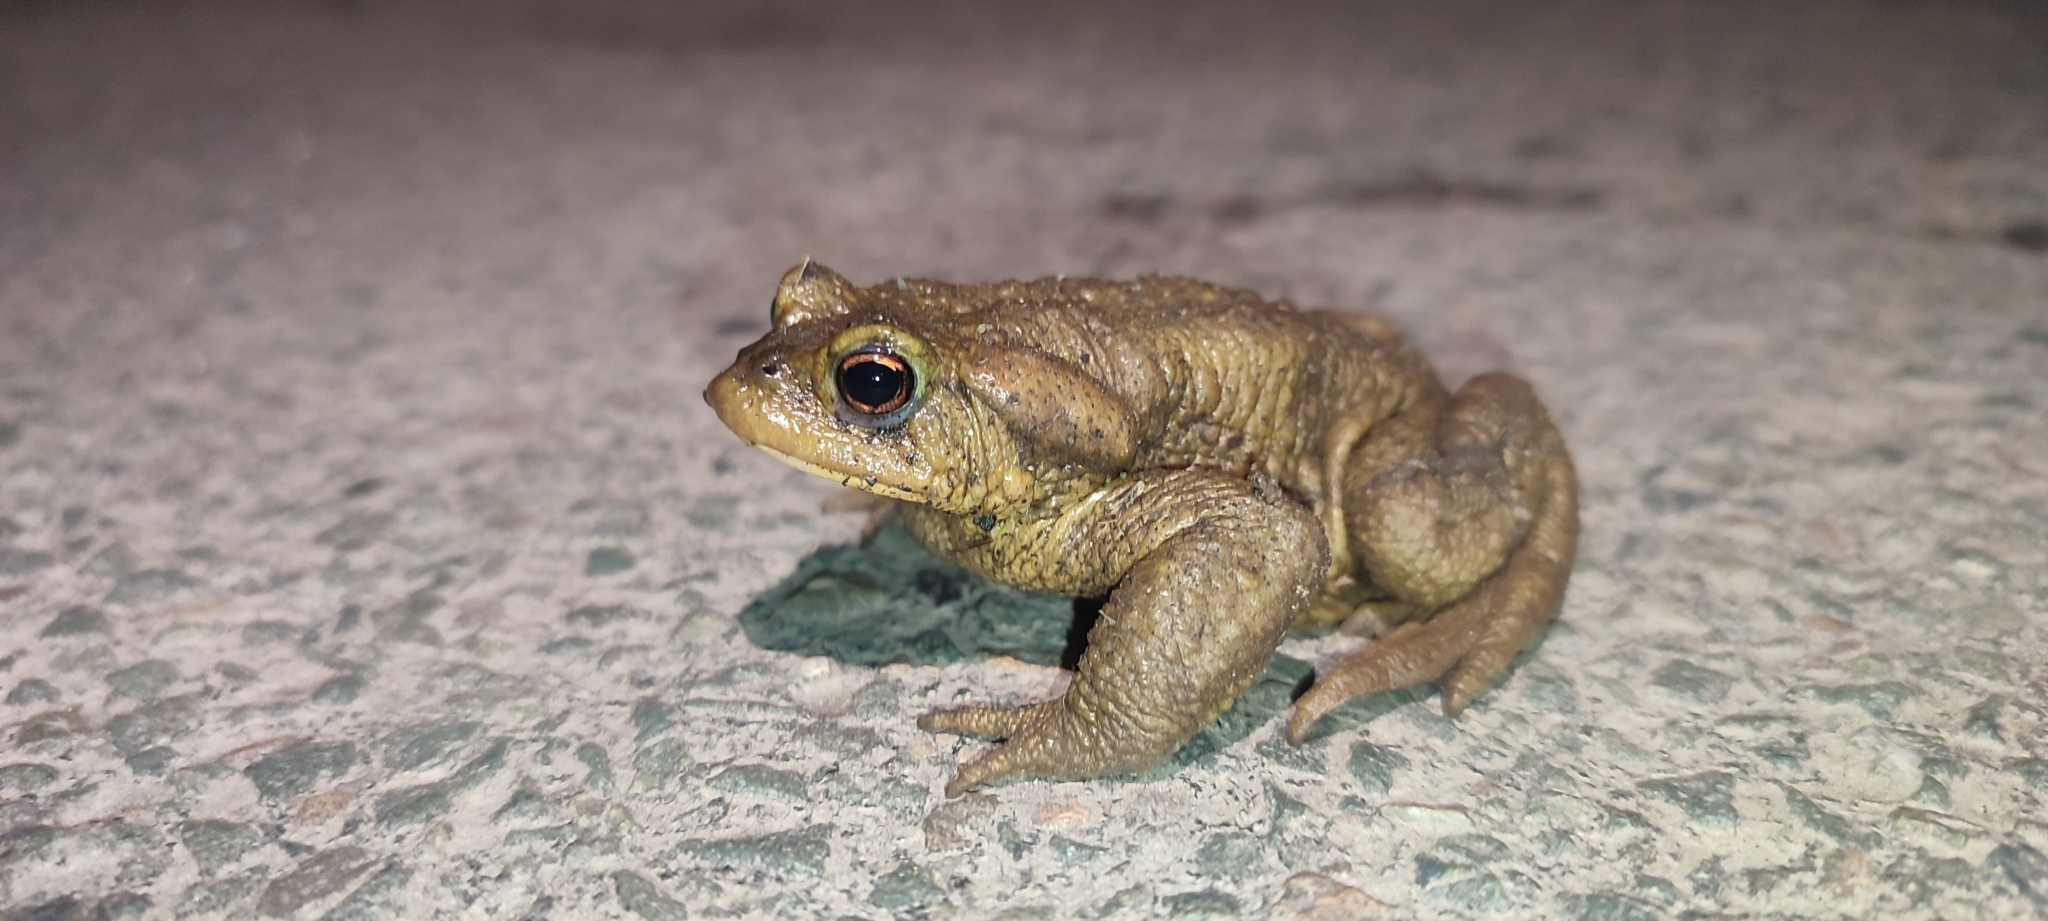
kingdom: Animalia
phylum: Chordata
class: Amphibia
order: Anura
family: Bufonidae
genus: Bufo
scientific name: Bufo spinosus
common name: Western common toad
